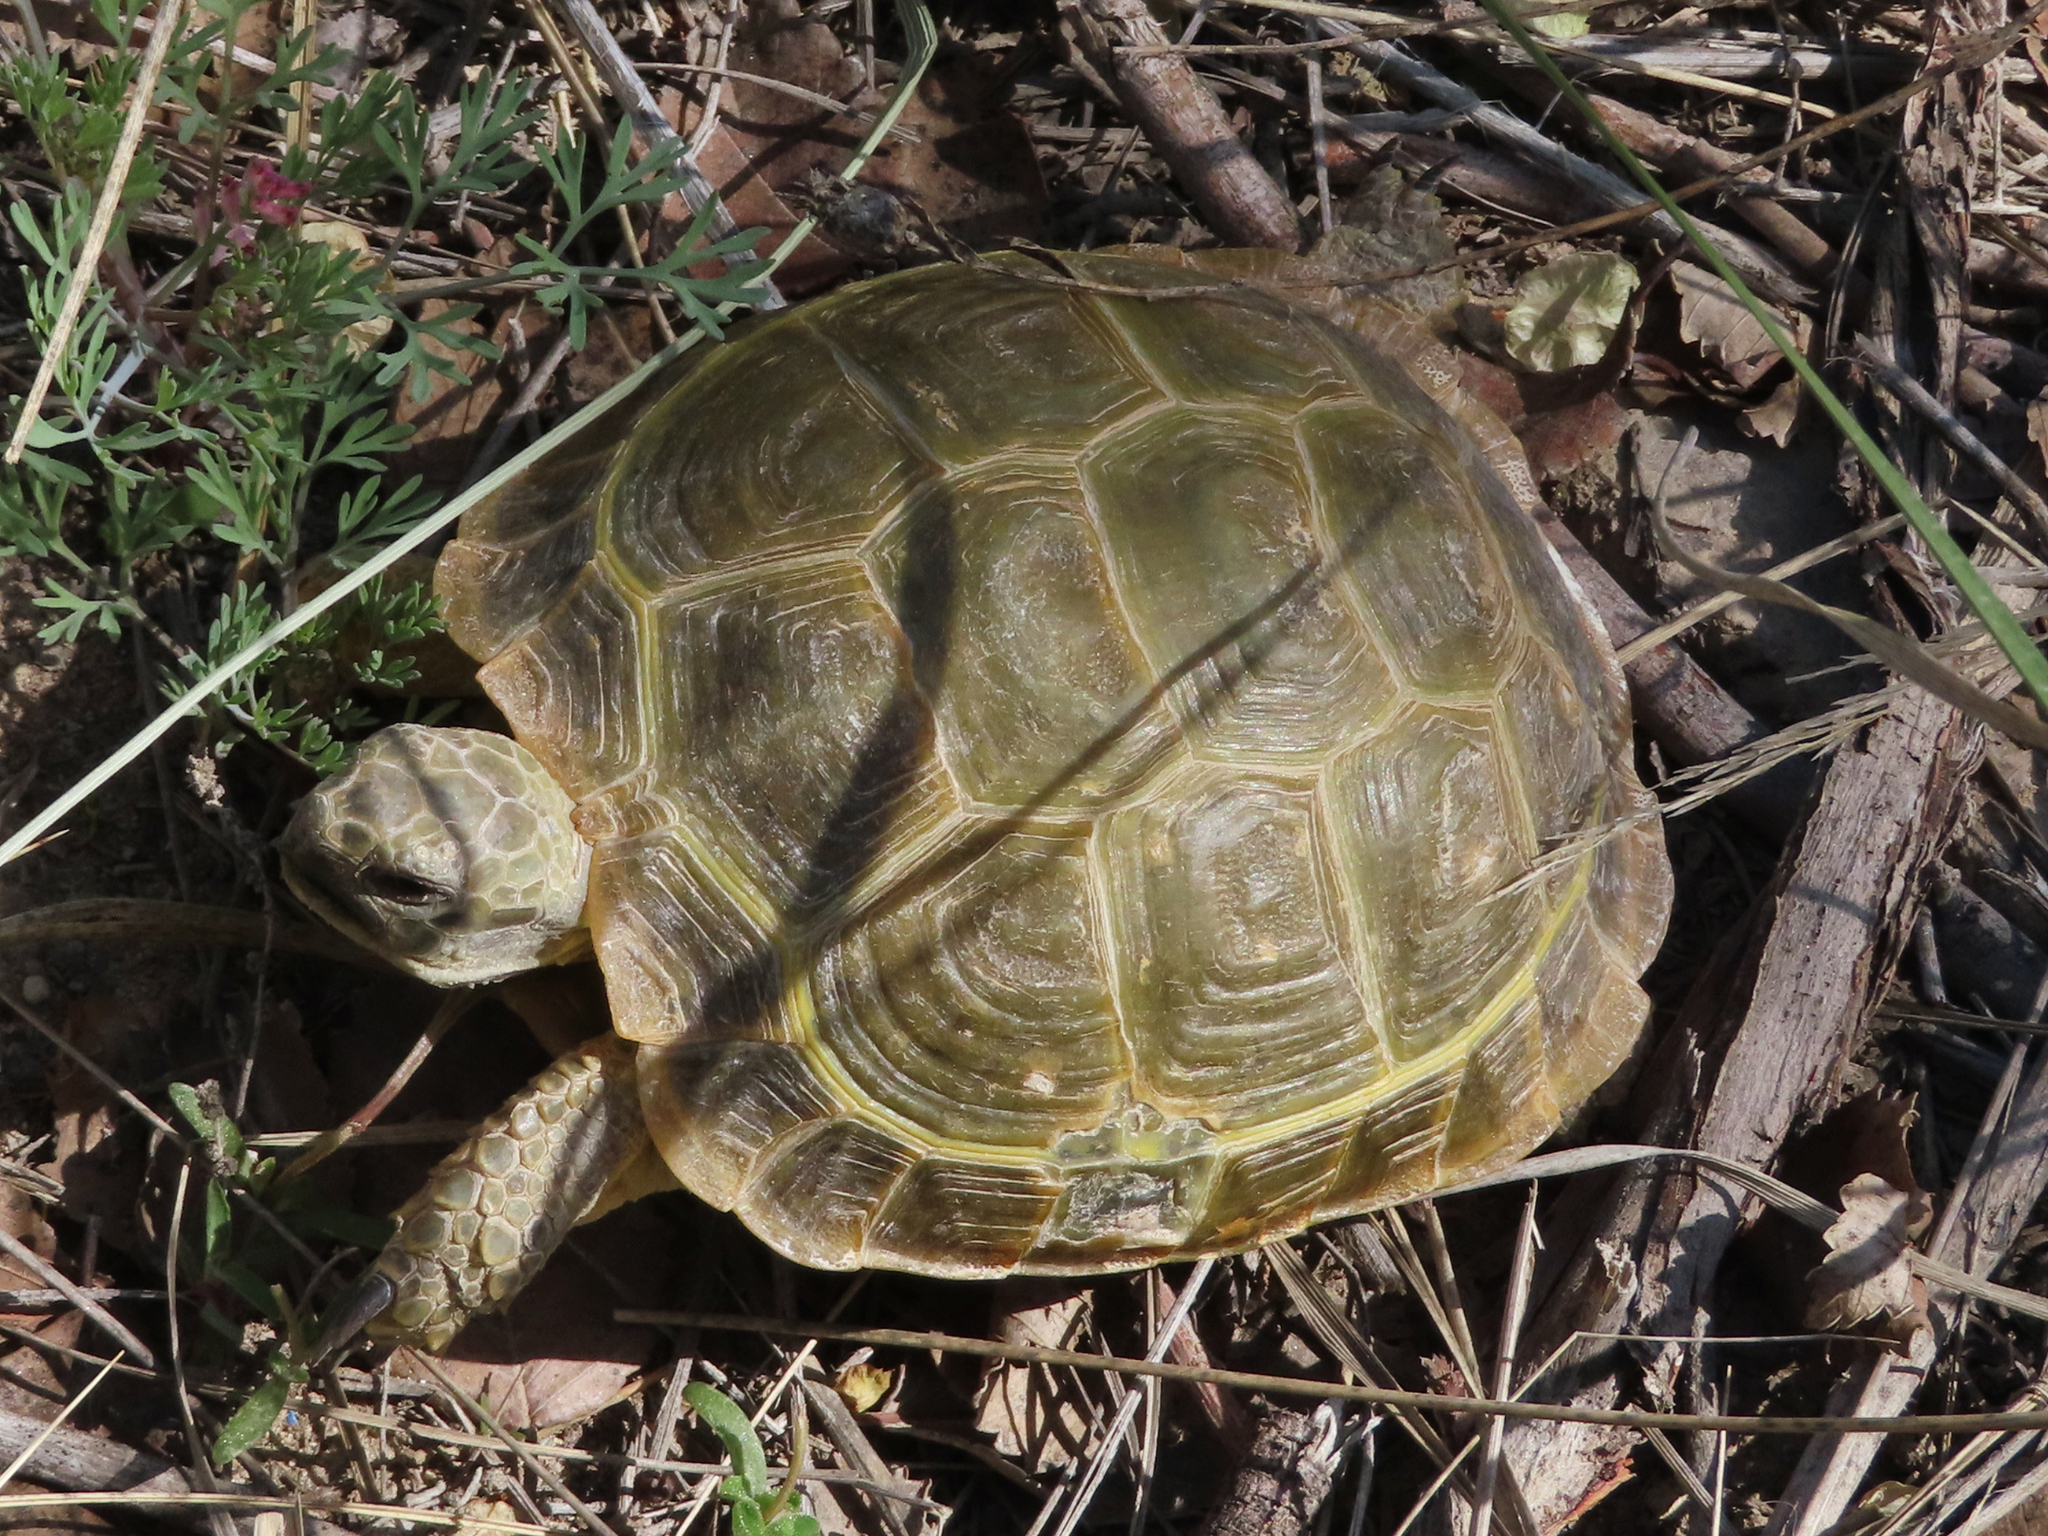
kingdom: Animalia
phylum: Chordata
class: Testudines
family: Testudinidae
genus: Testudo
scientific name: Testudo horsfieldii
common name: Central asia tortoise
